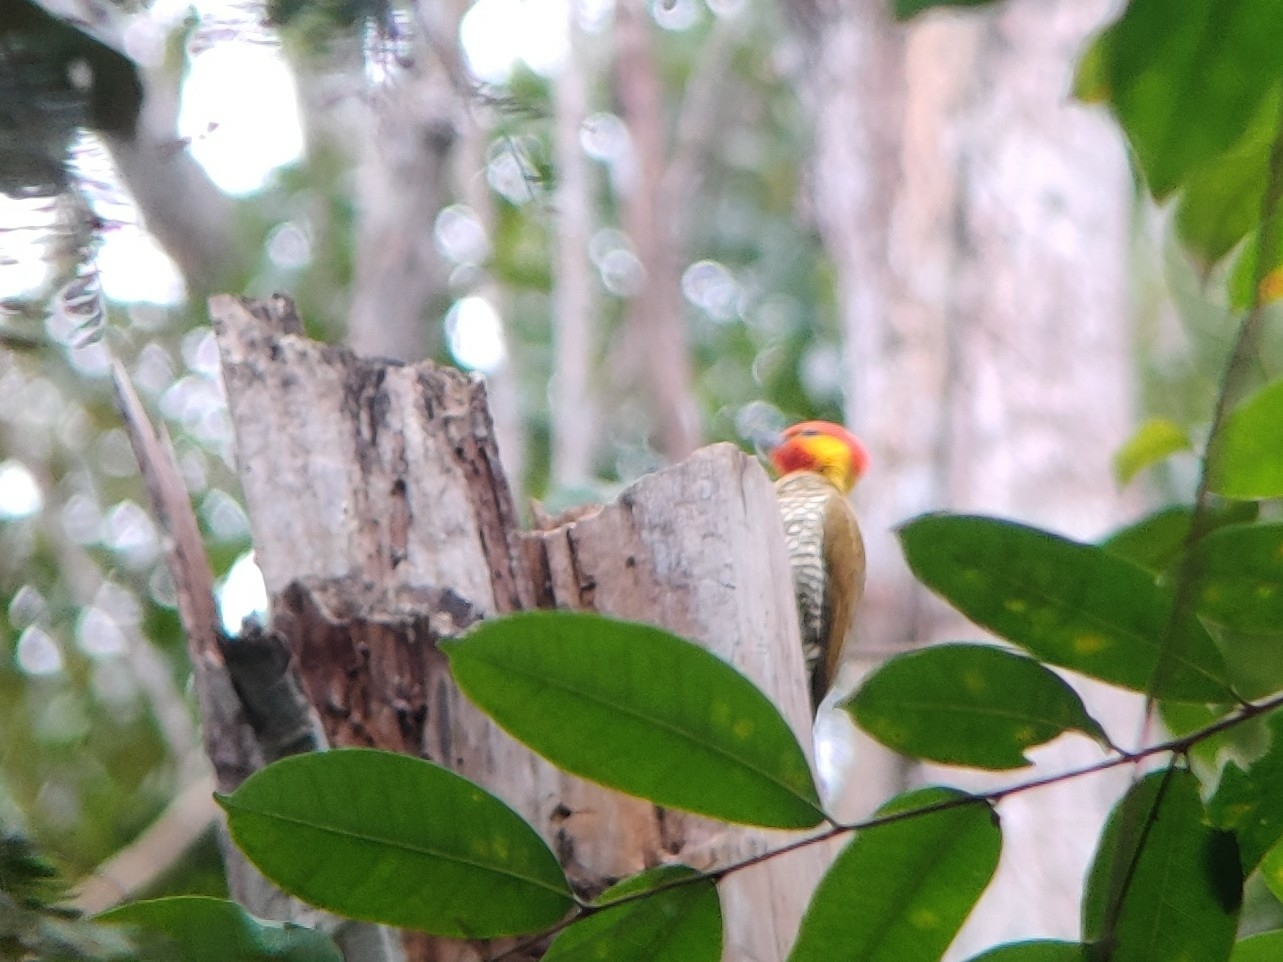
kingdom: Animalia
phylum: Chordata
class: Aves
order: Piciformes
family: Picidae
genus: Piculus
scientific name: Piculus flavigula
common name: Yellow-throated woodpecker
